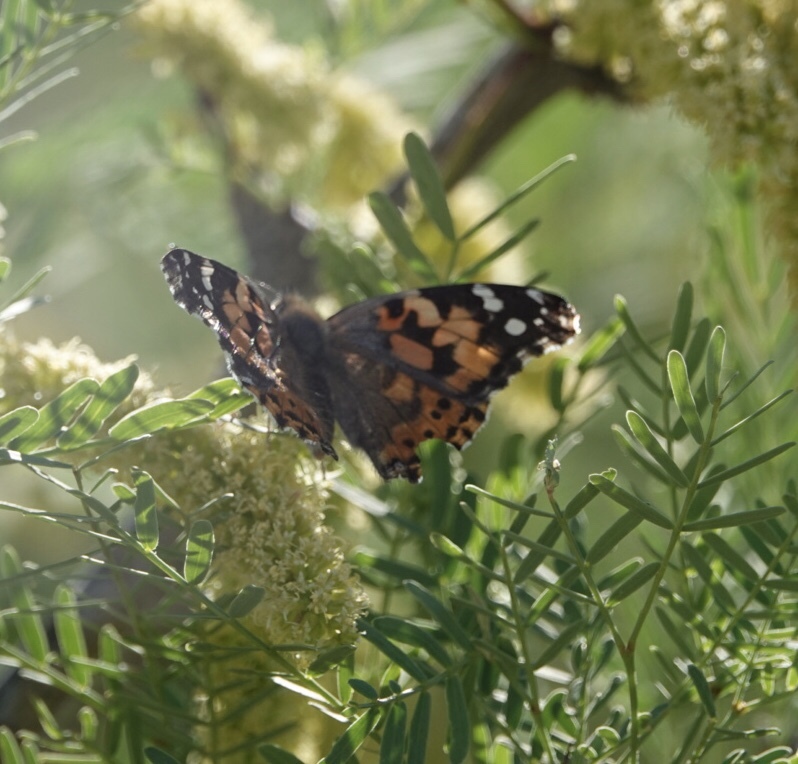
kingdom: Animalia
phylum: Arthropoda
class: Insecta
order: Lepidoptera
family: Nymphalidae
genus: Vanessa
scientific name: Vanessa cardui
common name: Painted lady
